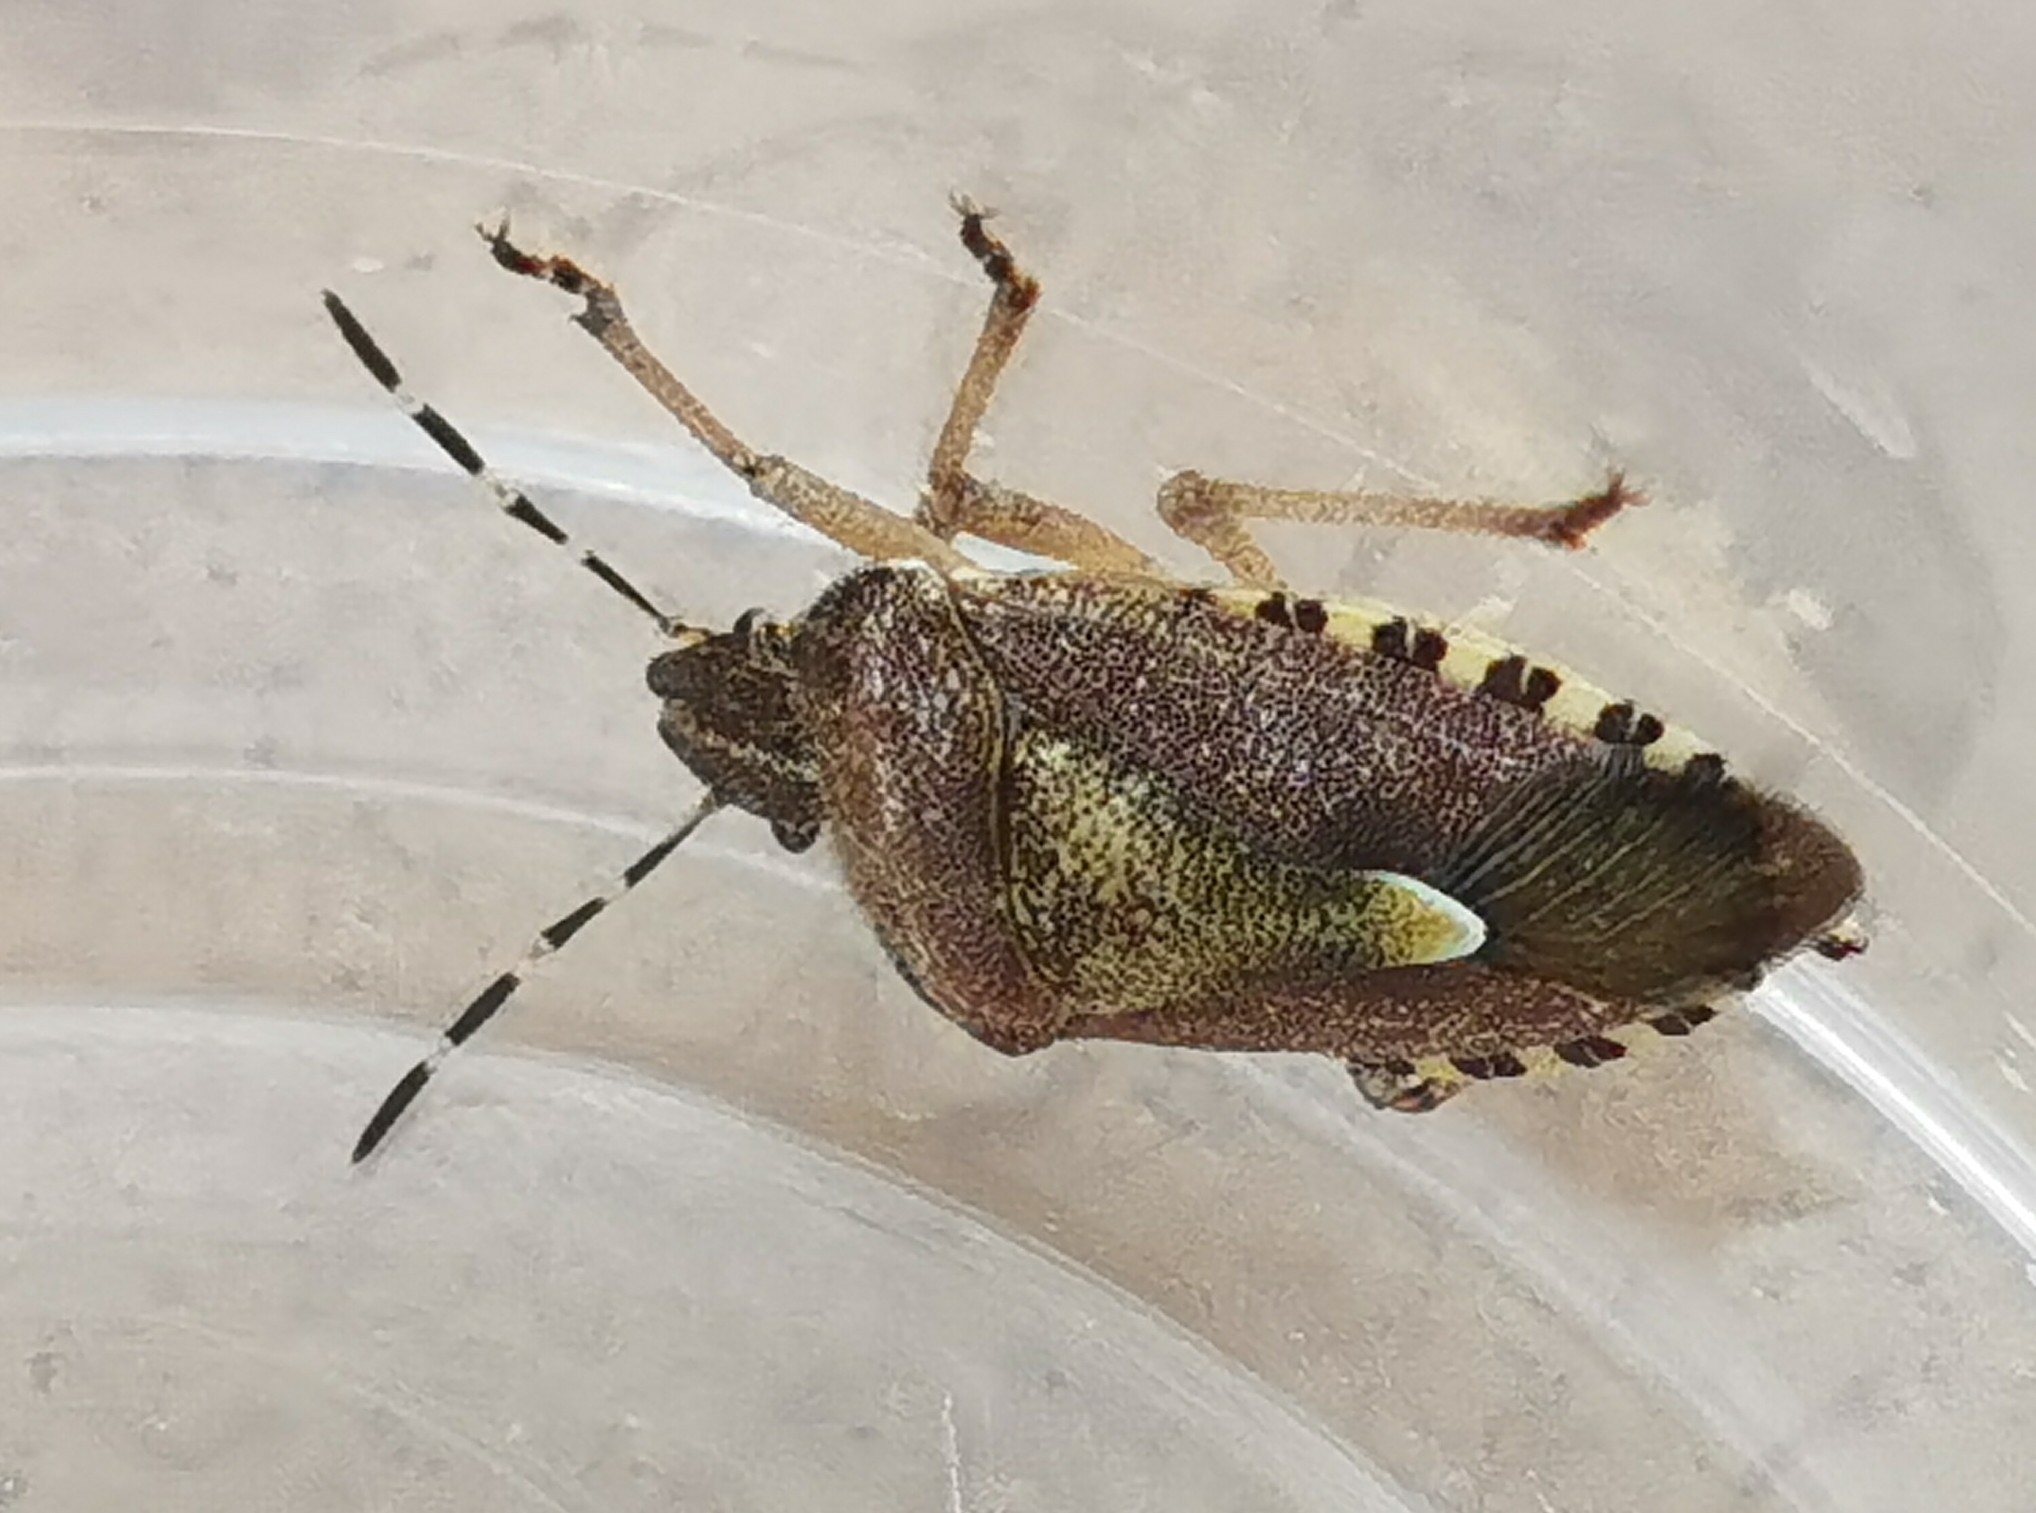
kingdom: Animalia
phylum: Arthropoda
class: Insecta
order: Hemiptera
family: Pentatomidae
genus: Dolycoris
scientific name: Dolycoris baccarum
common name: Sloe bug
